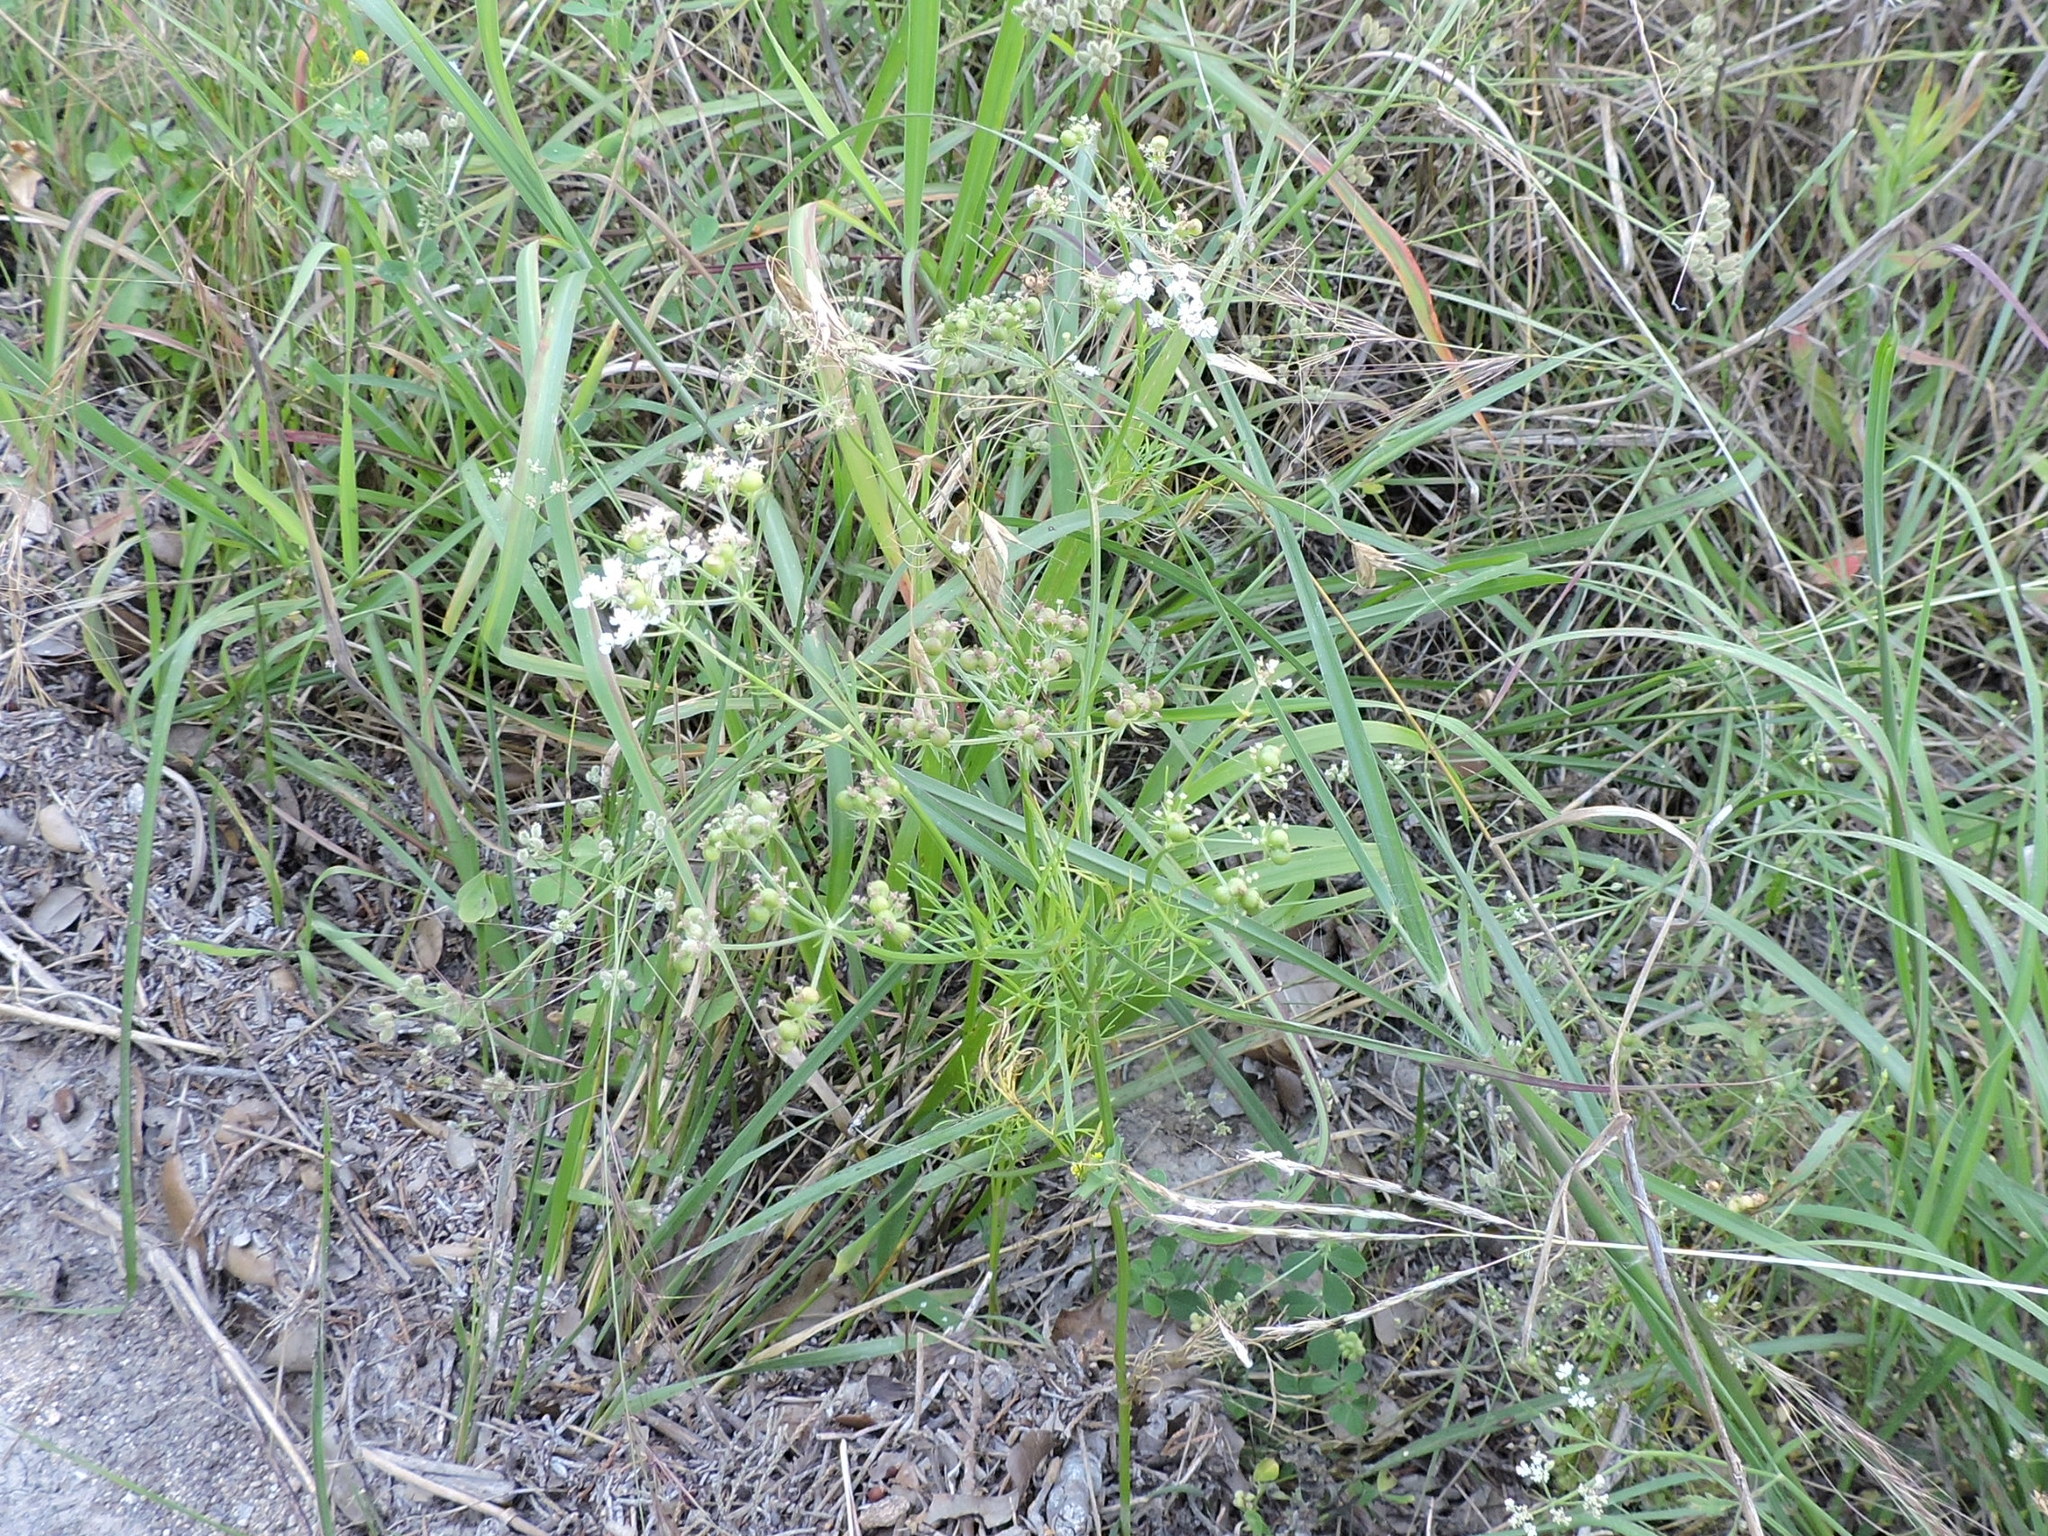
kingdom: Plantae
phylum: Tracheophyta
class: Magnoliopsida
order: Apiales
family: Apiaceae
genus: Atrema
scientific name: Atrema americanum
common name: Prairie-bishop
